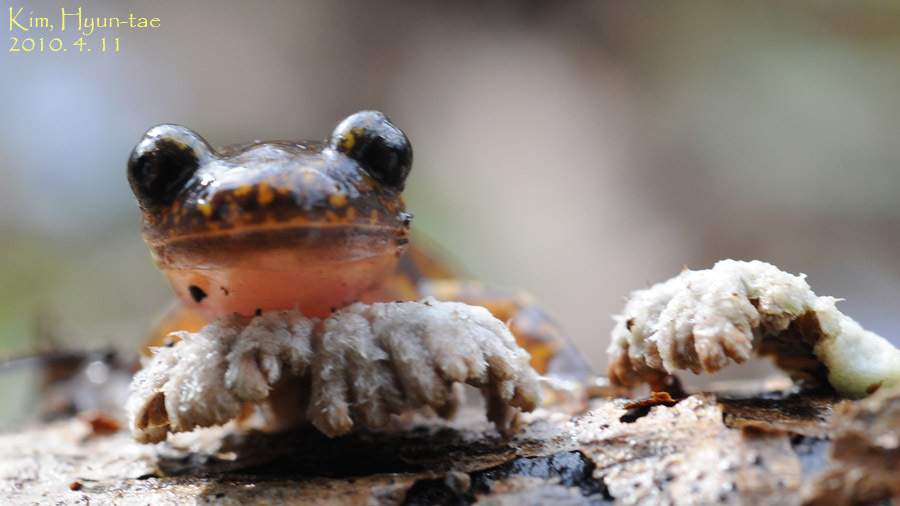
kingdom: Animalia
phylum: Chordata
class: Amphibia
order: Caudata
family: Hynobiidae
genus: Onychodactylus
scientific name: Onychodactylus koreanus
